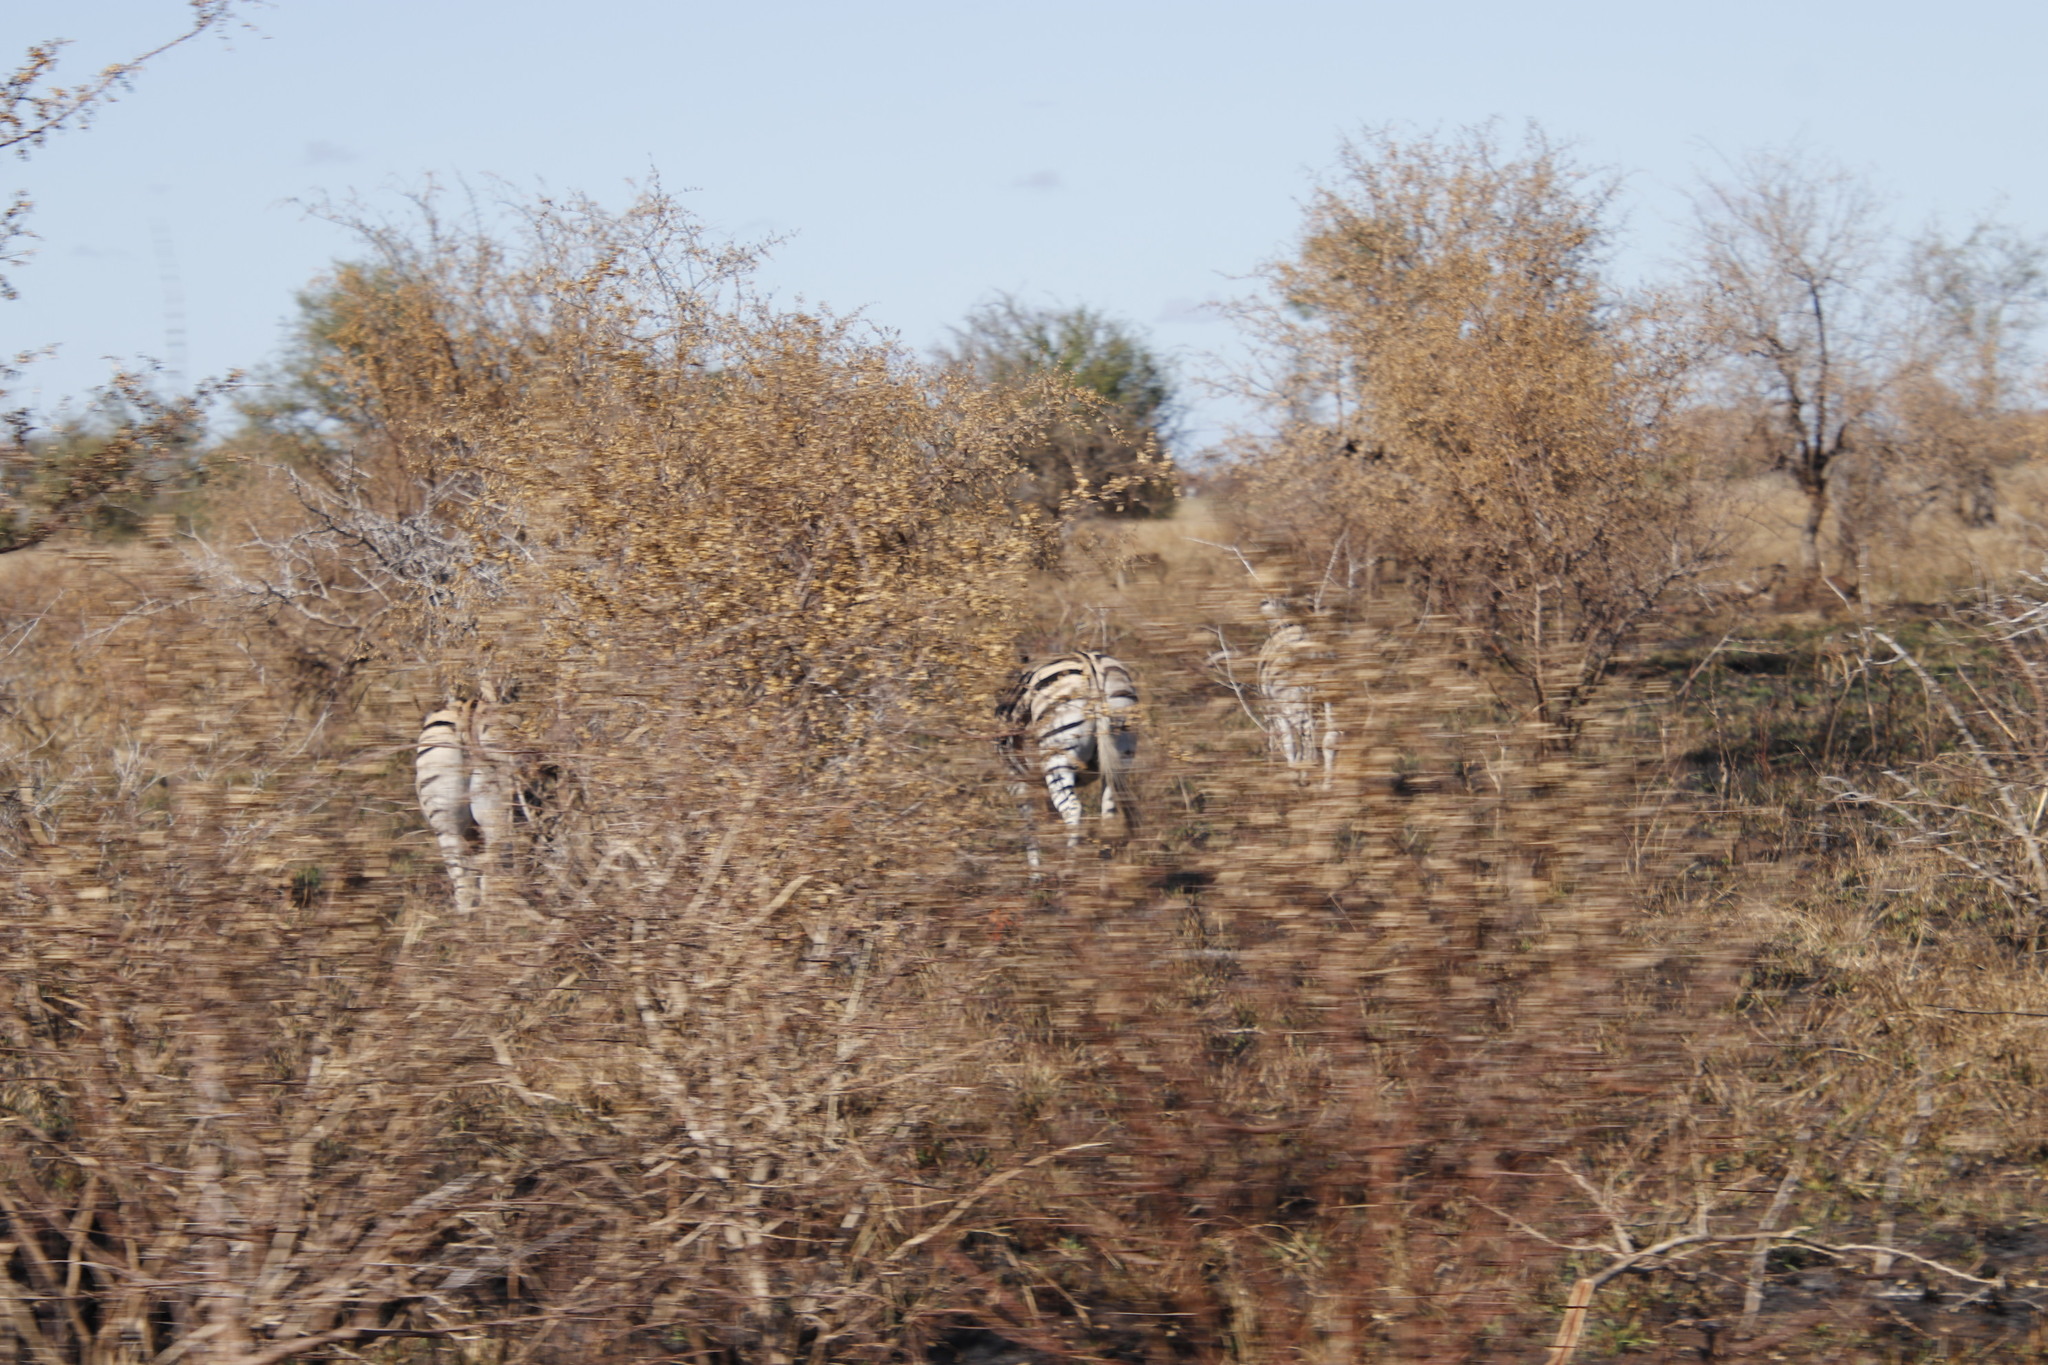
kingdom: Animalia
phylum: Chordata
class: Mammalia
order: Perissodactyla
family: Equidae
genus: Equus
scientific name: Equus quagga
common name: Plains zebra
